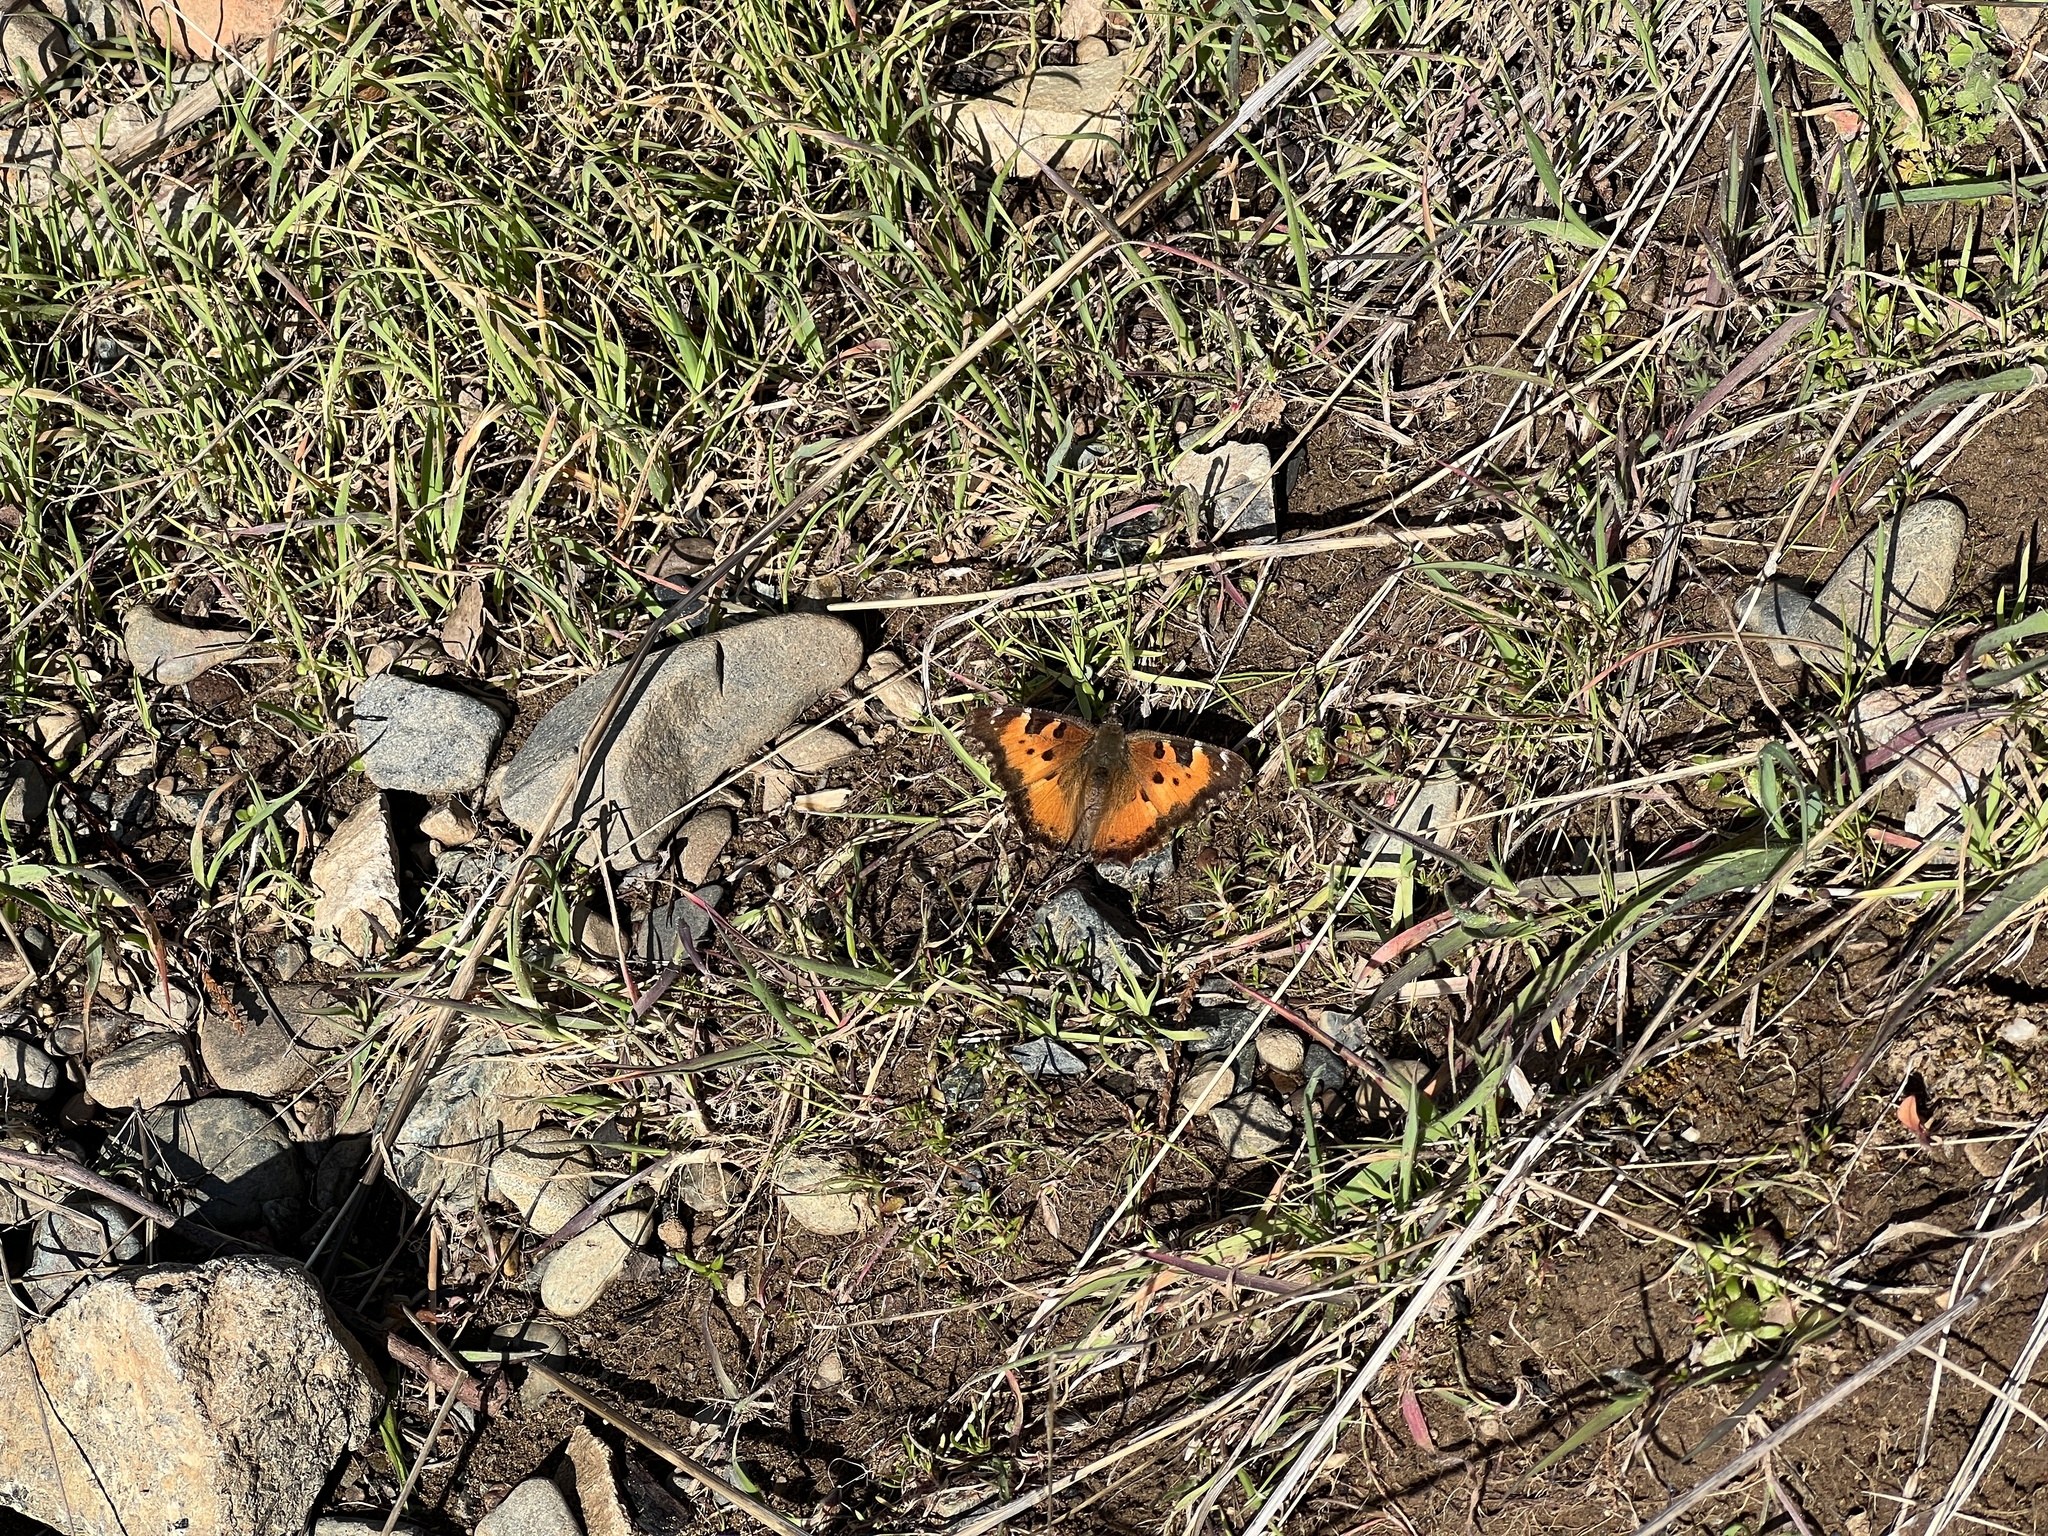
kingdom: Animalia
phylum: Arthropoda
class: Insecta
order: Lepidoptera
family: Nymphalidae
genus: Nymphalis
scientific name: Nymphalis californica
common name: California tortoiseshell
